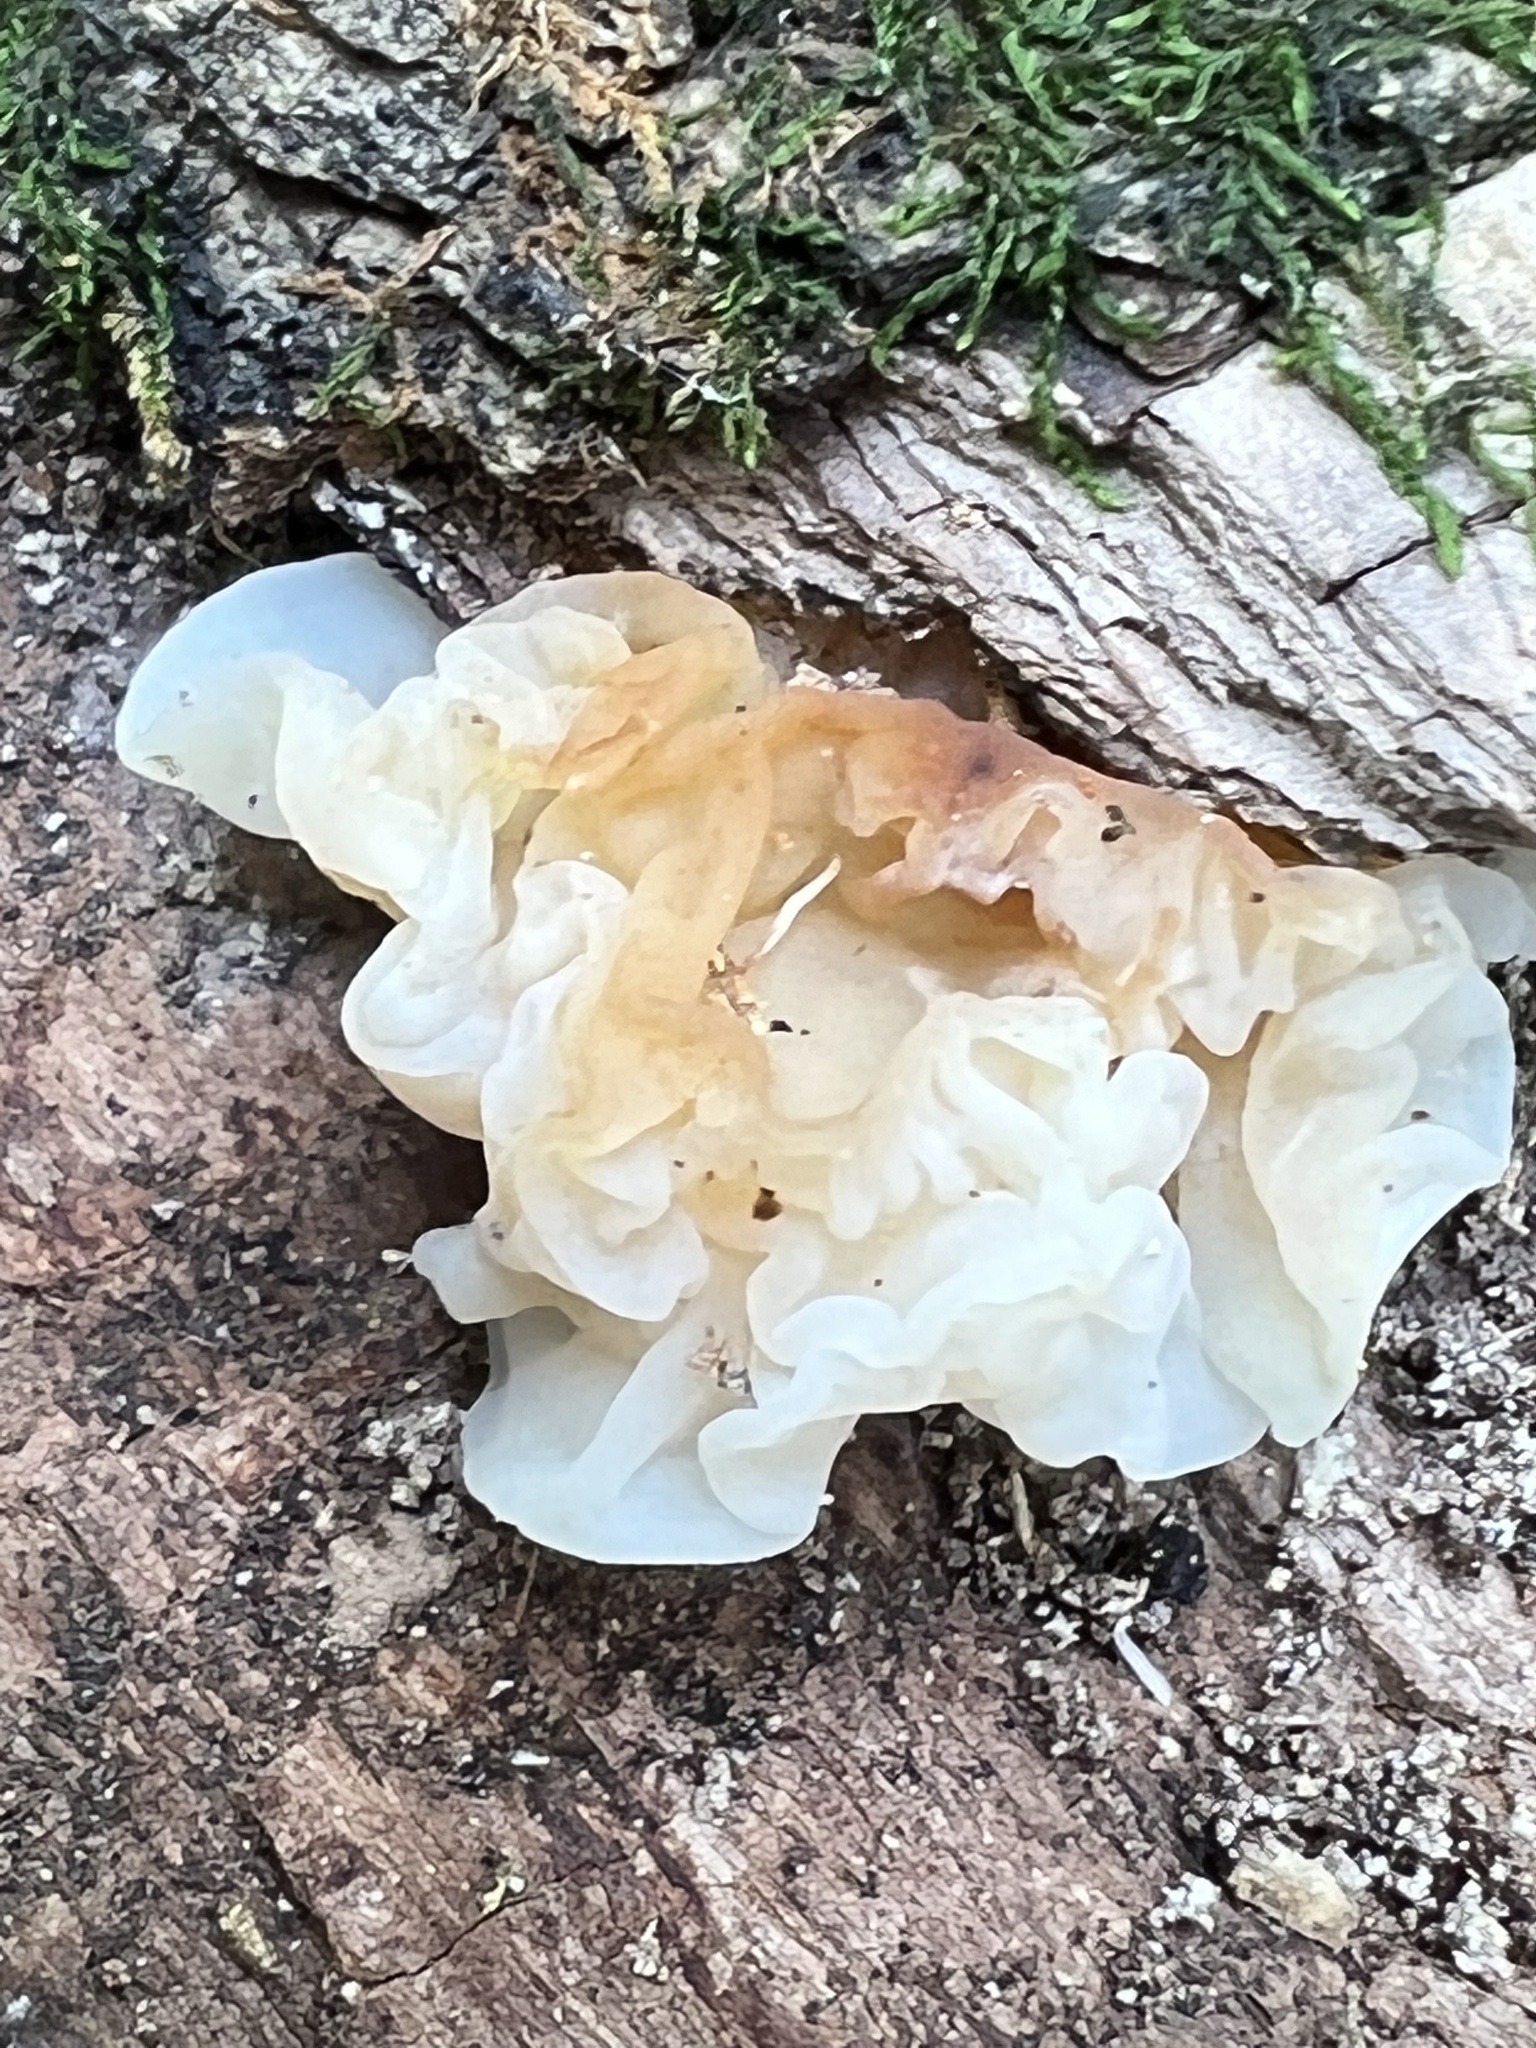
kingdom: Fungi
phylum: Basidiomycota
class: Agaricomycetes
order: Auriculariales
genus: Ductifera
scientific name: Ductifera pululahuana
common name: White jelly fungus
